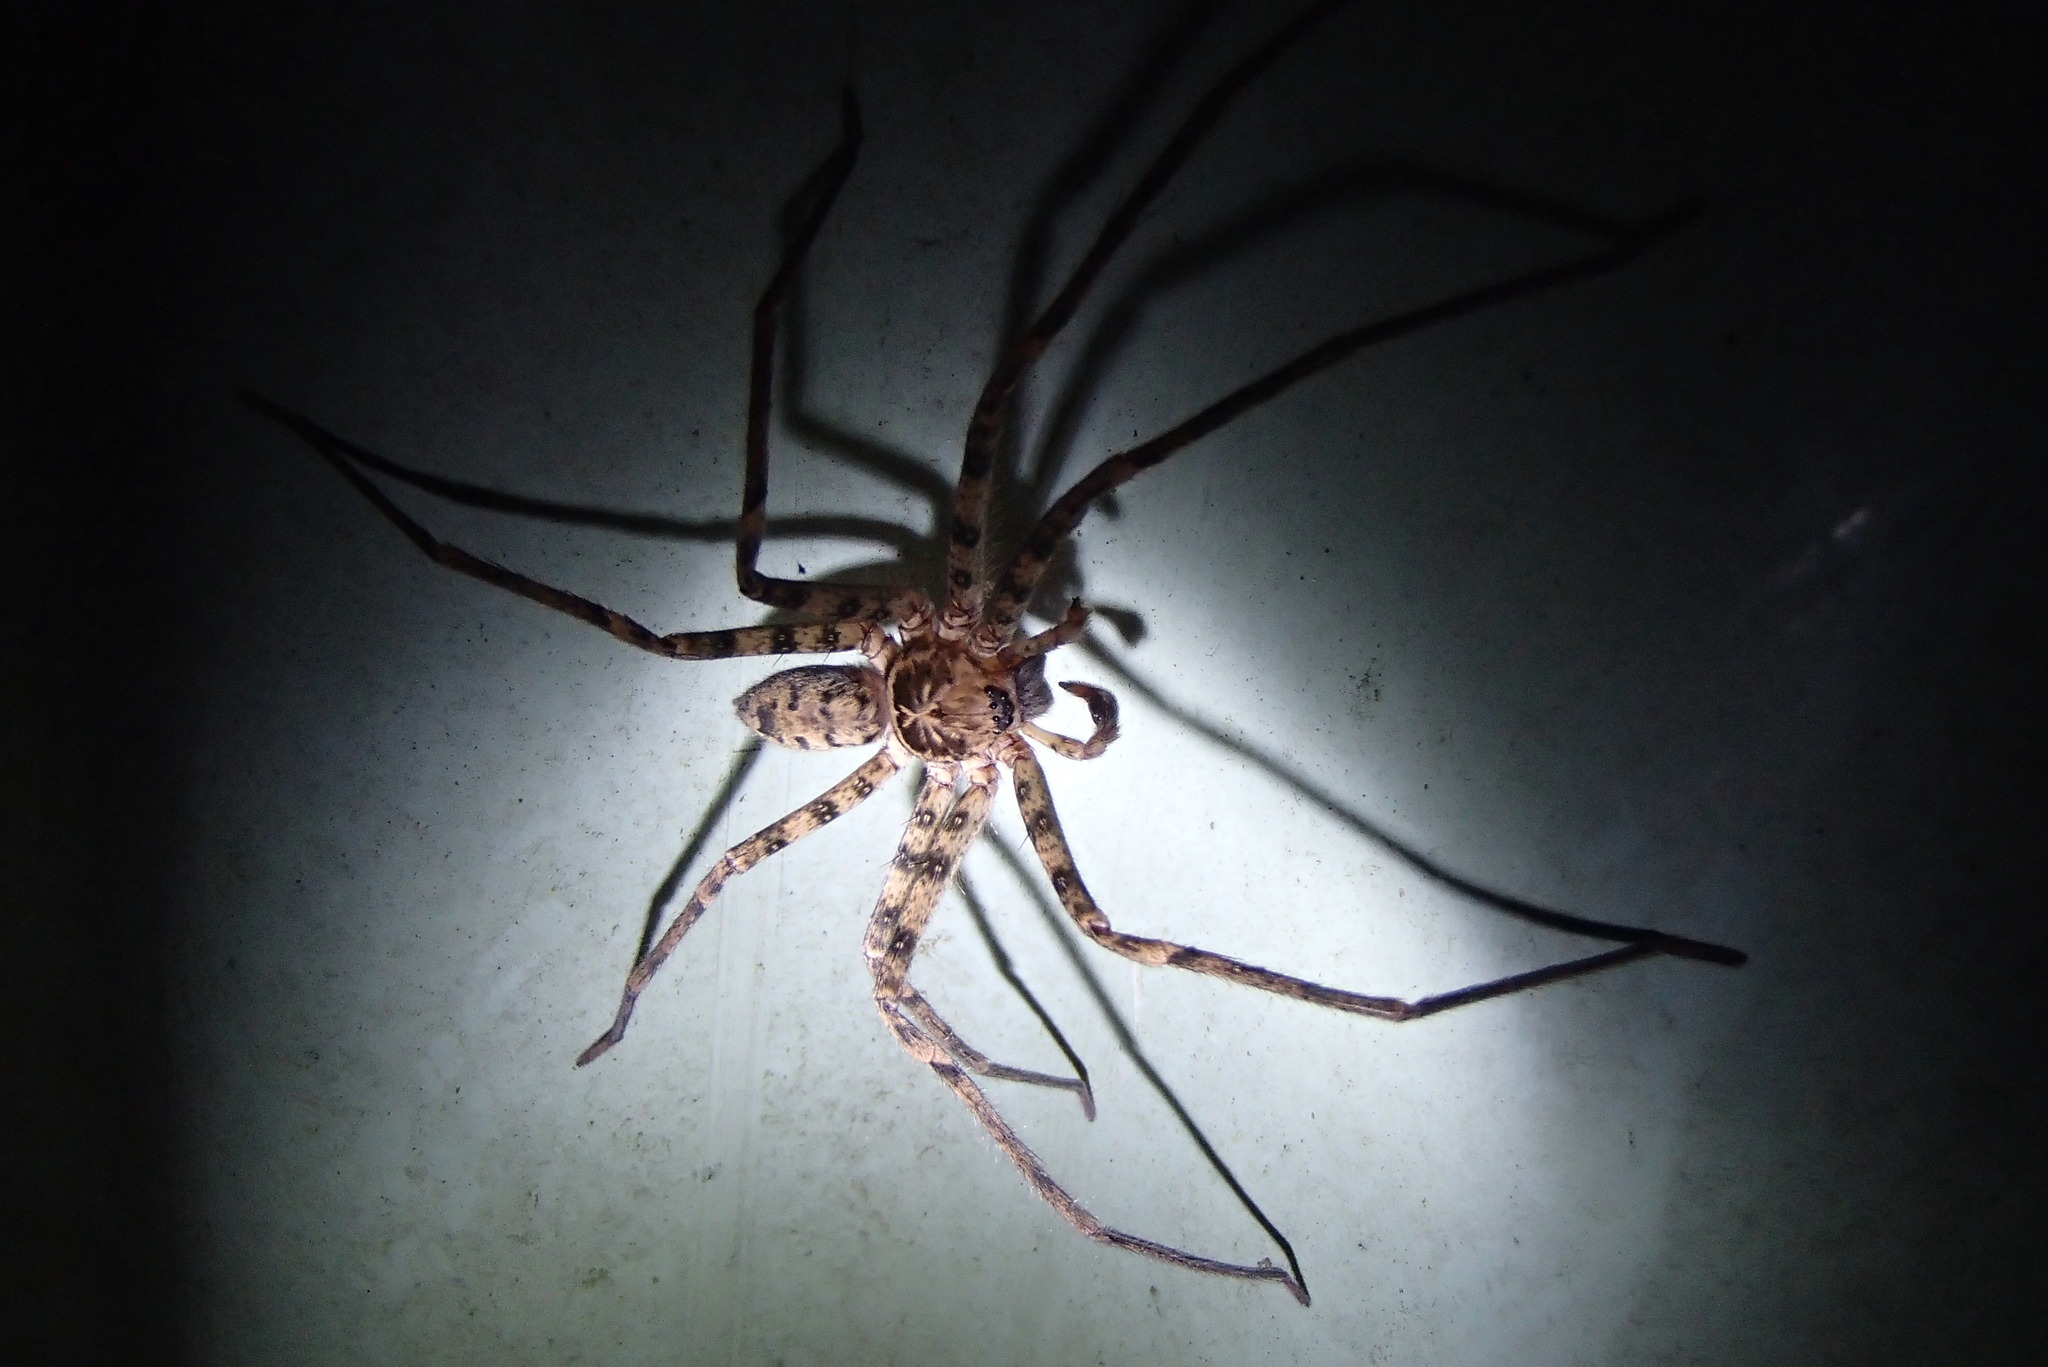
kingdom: Animalia
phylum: Arthropoda
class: Arachnida
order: Araneae
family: Sparassidae
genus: Heteropoda
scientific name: Heteropoda longipes
